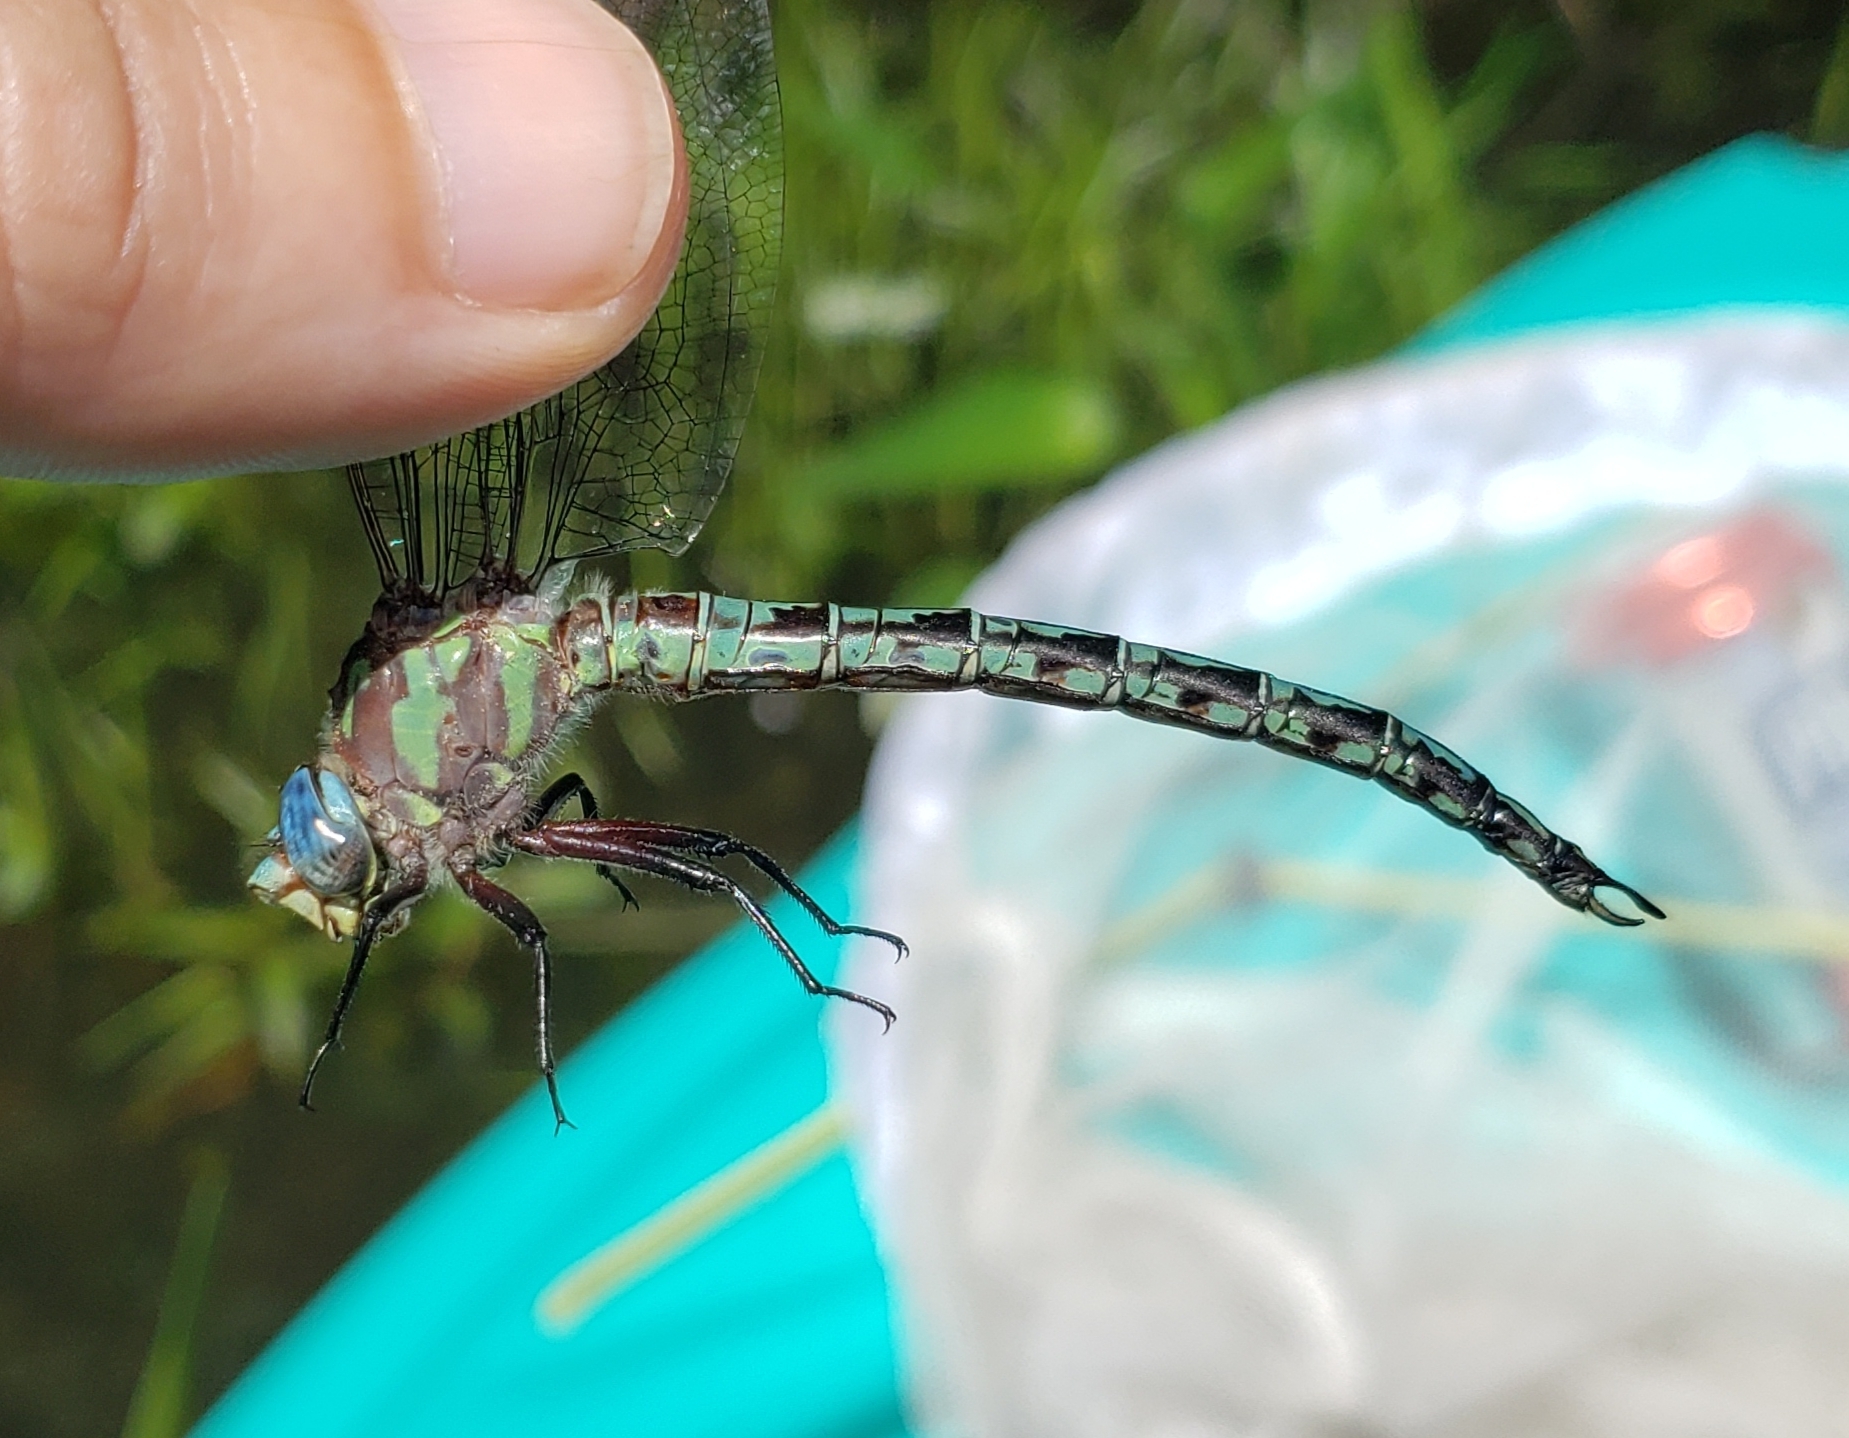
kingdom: Animalia
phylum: Arthropoda
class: Insecta
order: Odonata
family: Aeshnidae
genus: Nasiaeschna
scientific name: Nasiaeschna pentacantha
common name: Cyrano darner
